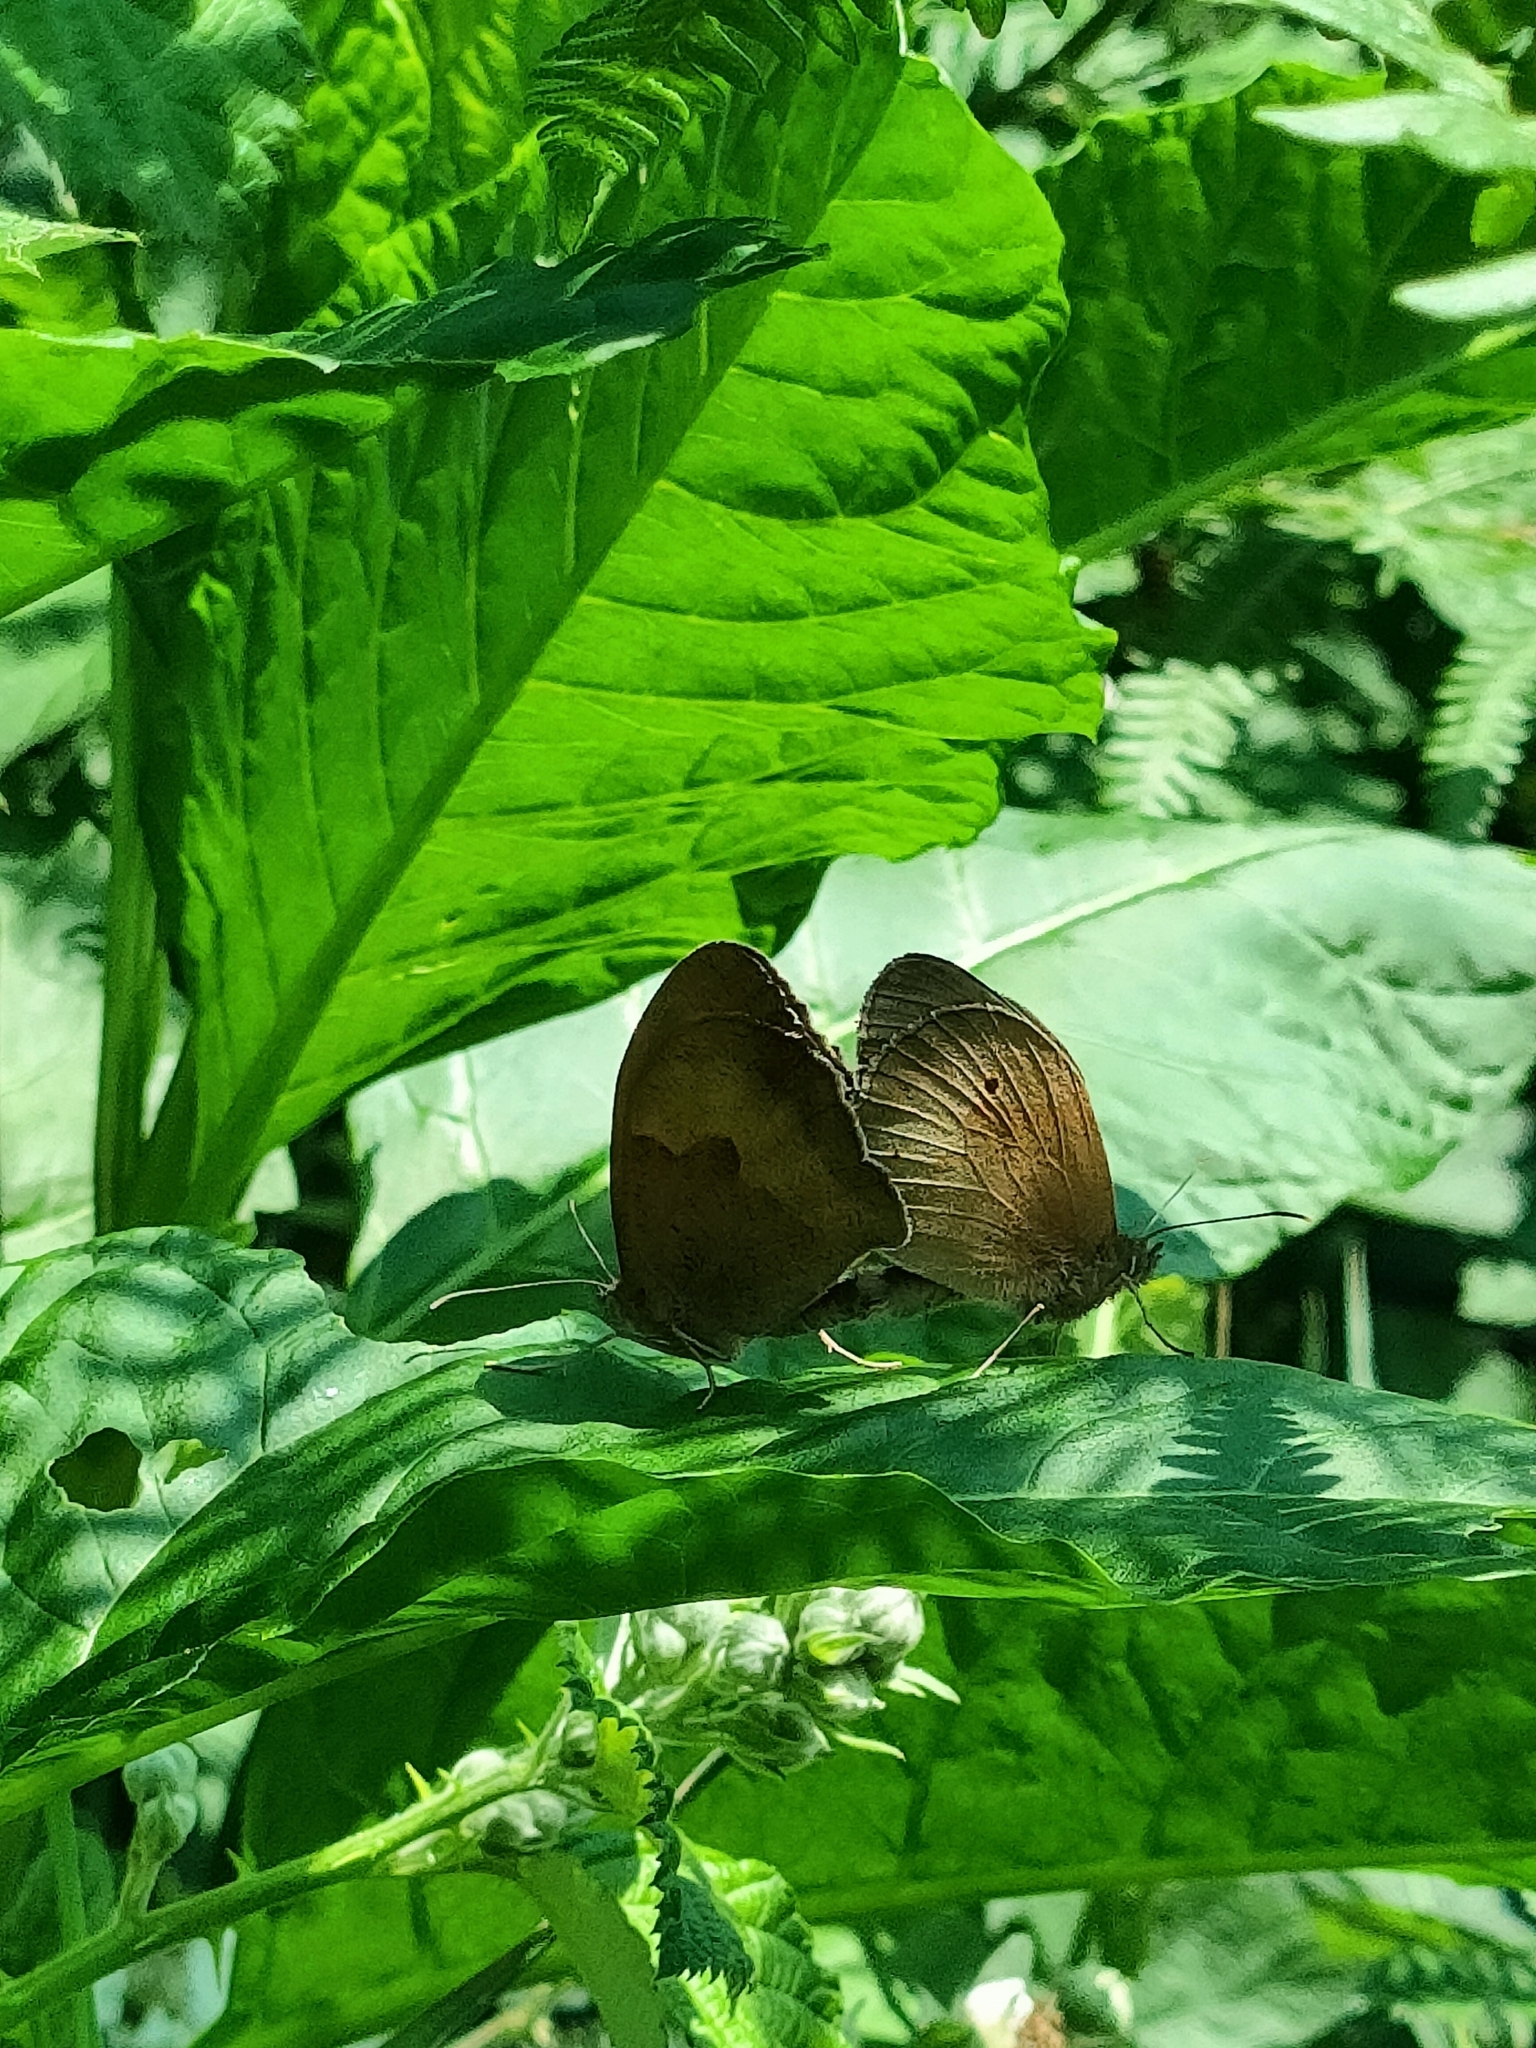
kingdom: Animalia
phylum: Arthropoda
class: Insecta
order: Lepidoptera
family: Nymphalidae
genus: Maniola
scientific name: Maniola jurtina
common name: Meadow brown
